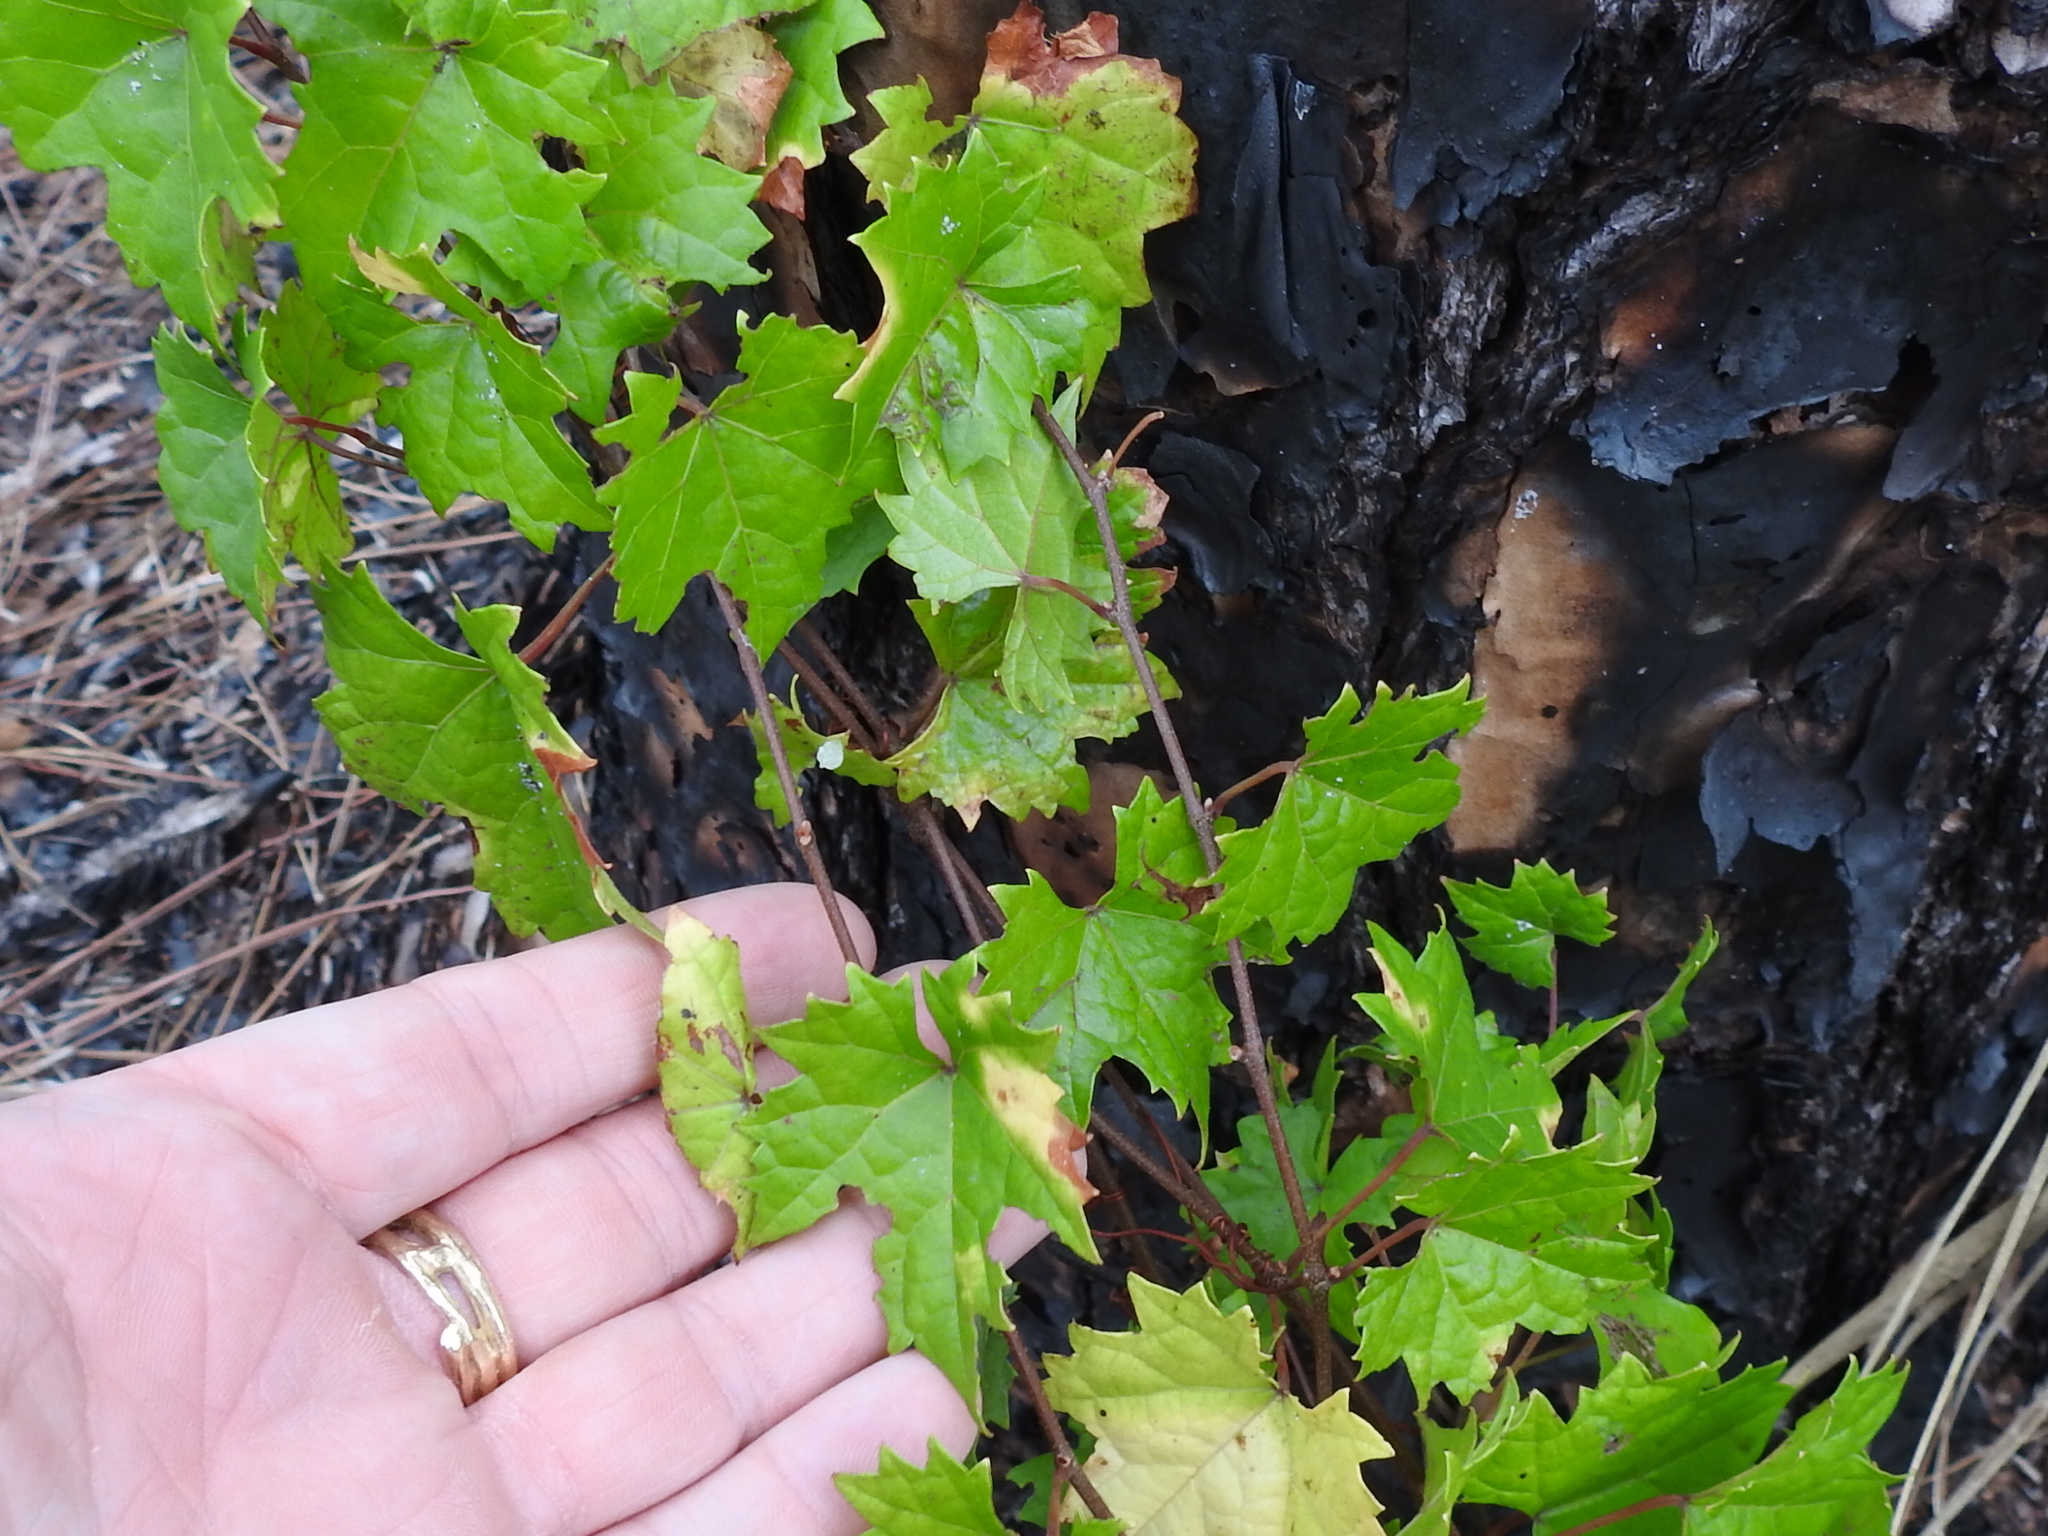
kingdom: Plantae
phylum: Tracheophyta
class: Magnoliopsida
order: Vitales
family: Vitaceae
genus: Vitis
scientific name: Vitis rotundifolia
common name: Muscadine grape
